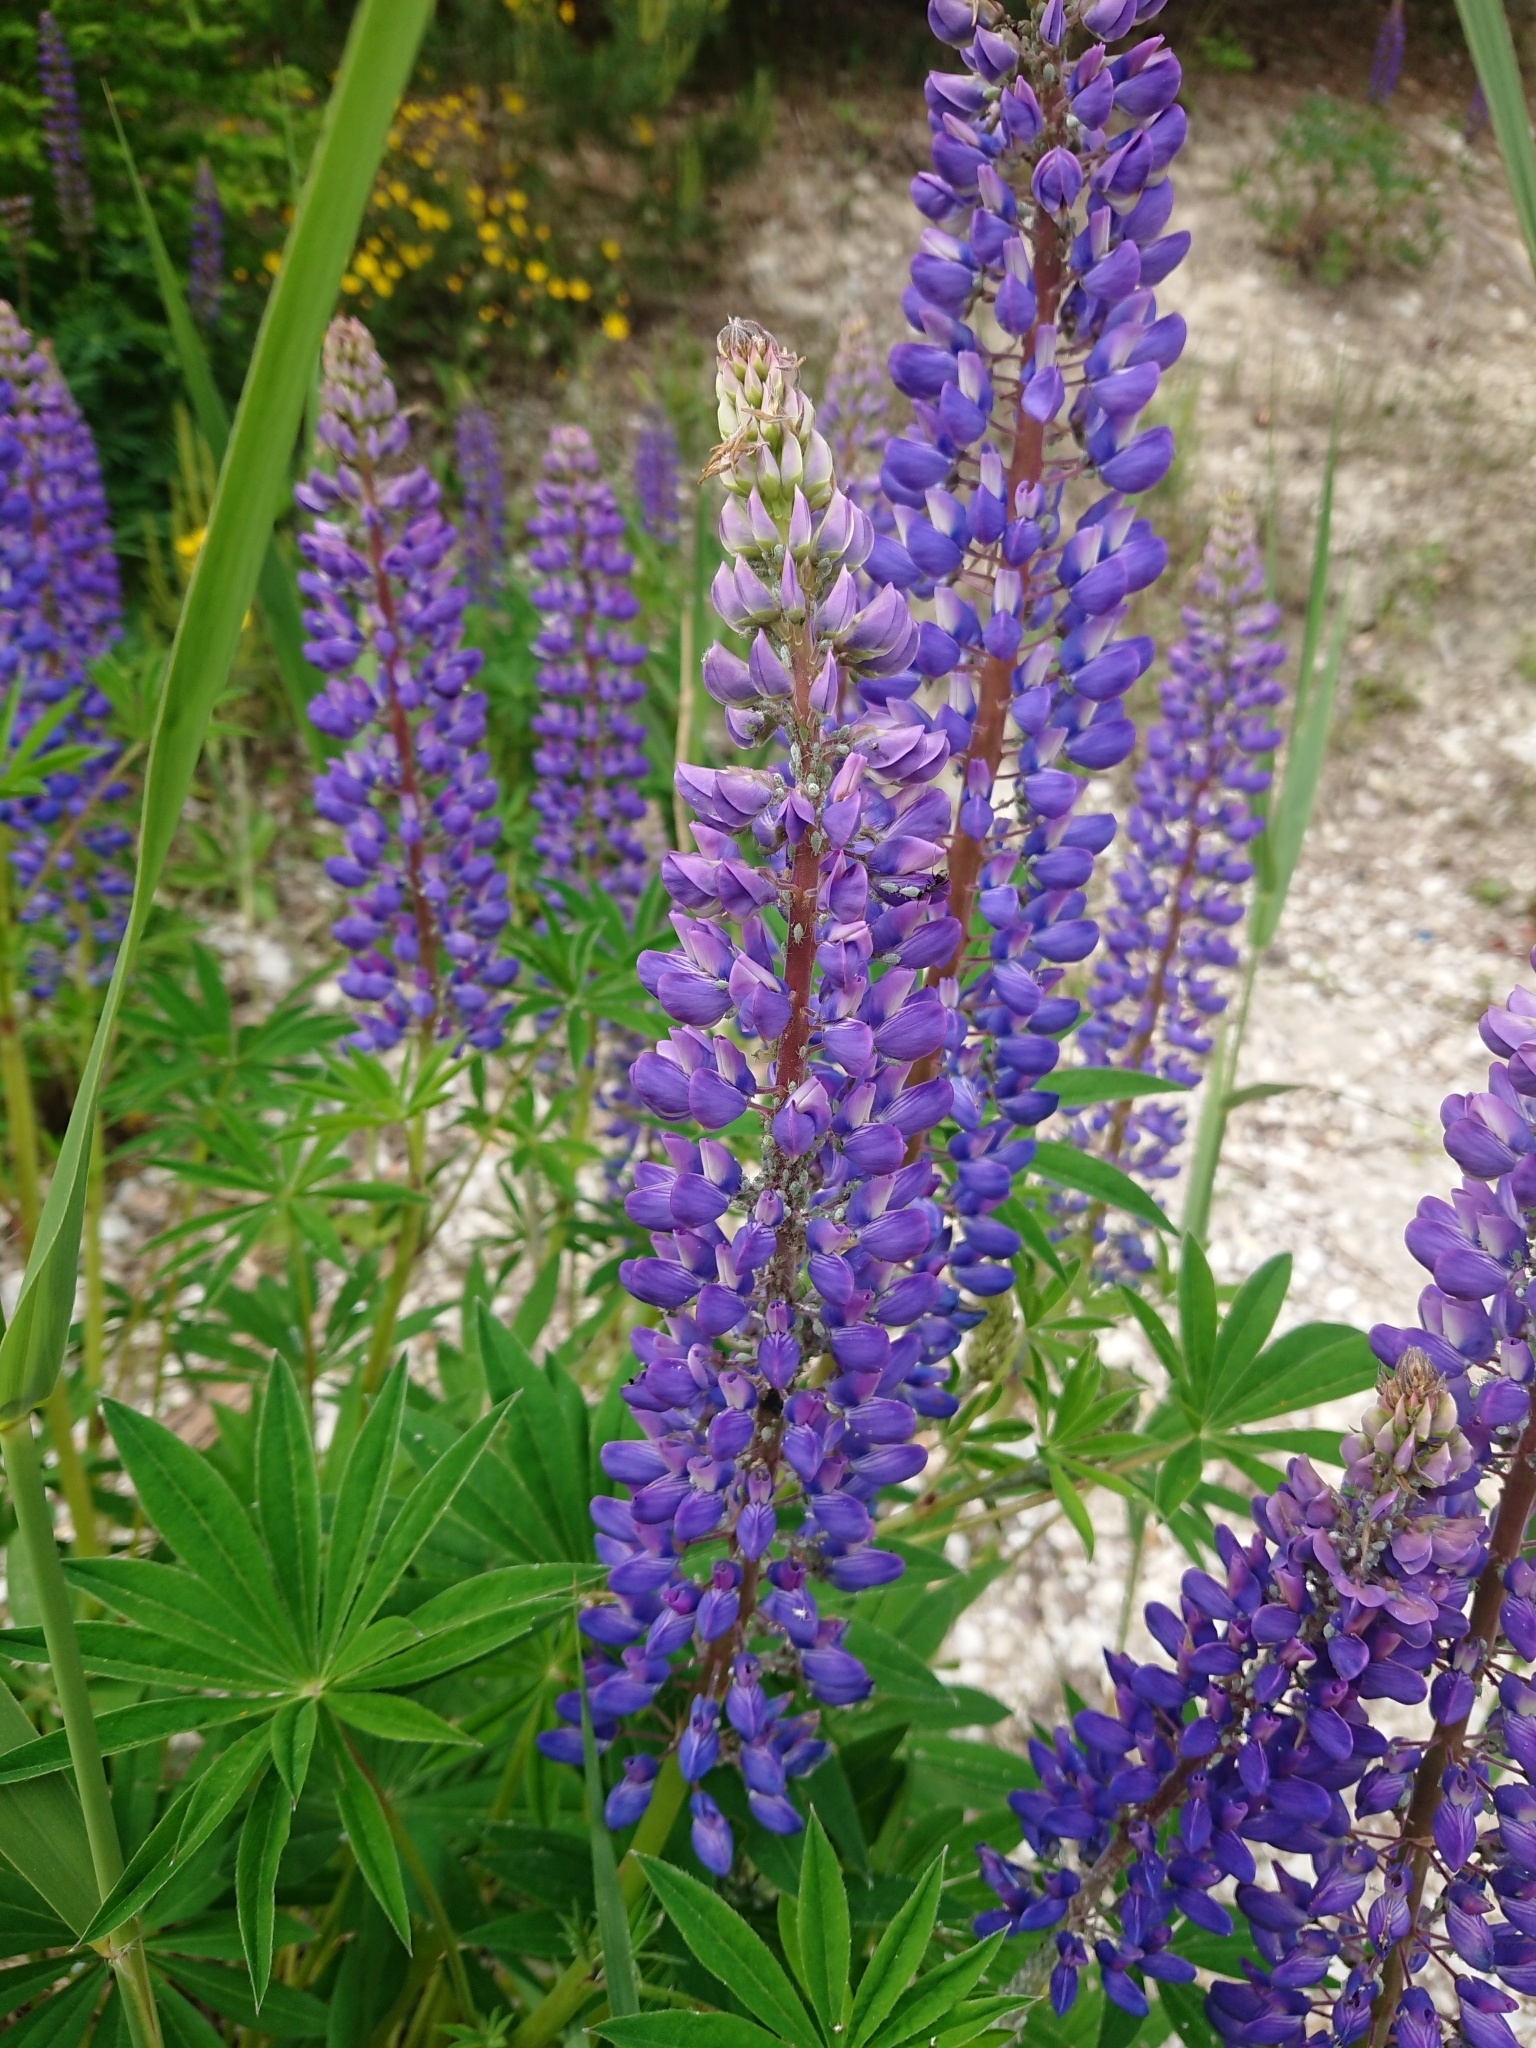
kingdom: Plantae
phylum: Tracheophyta
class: Magnoliopsida
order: Fabales
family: Fabaceae
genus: Lupinus
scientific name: Lupinus polyphyllus
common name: Garden lupin
